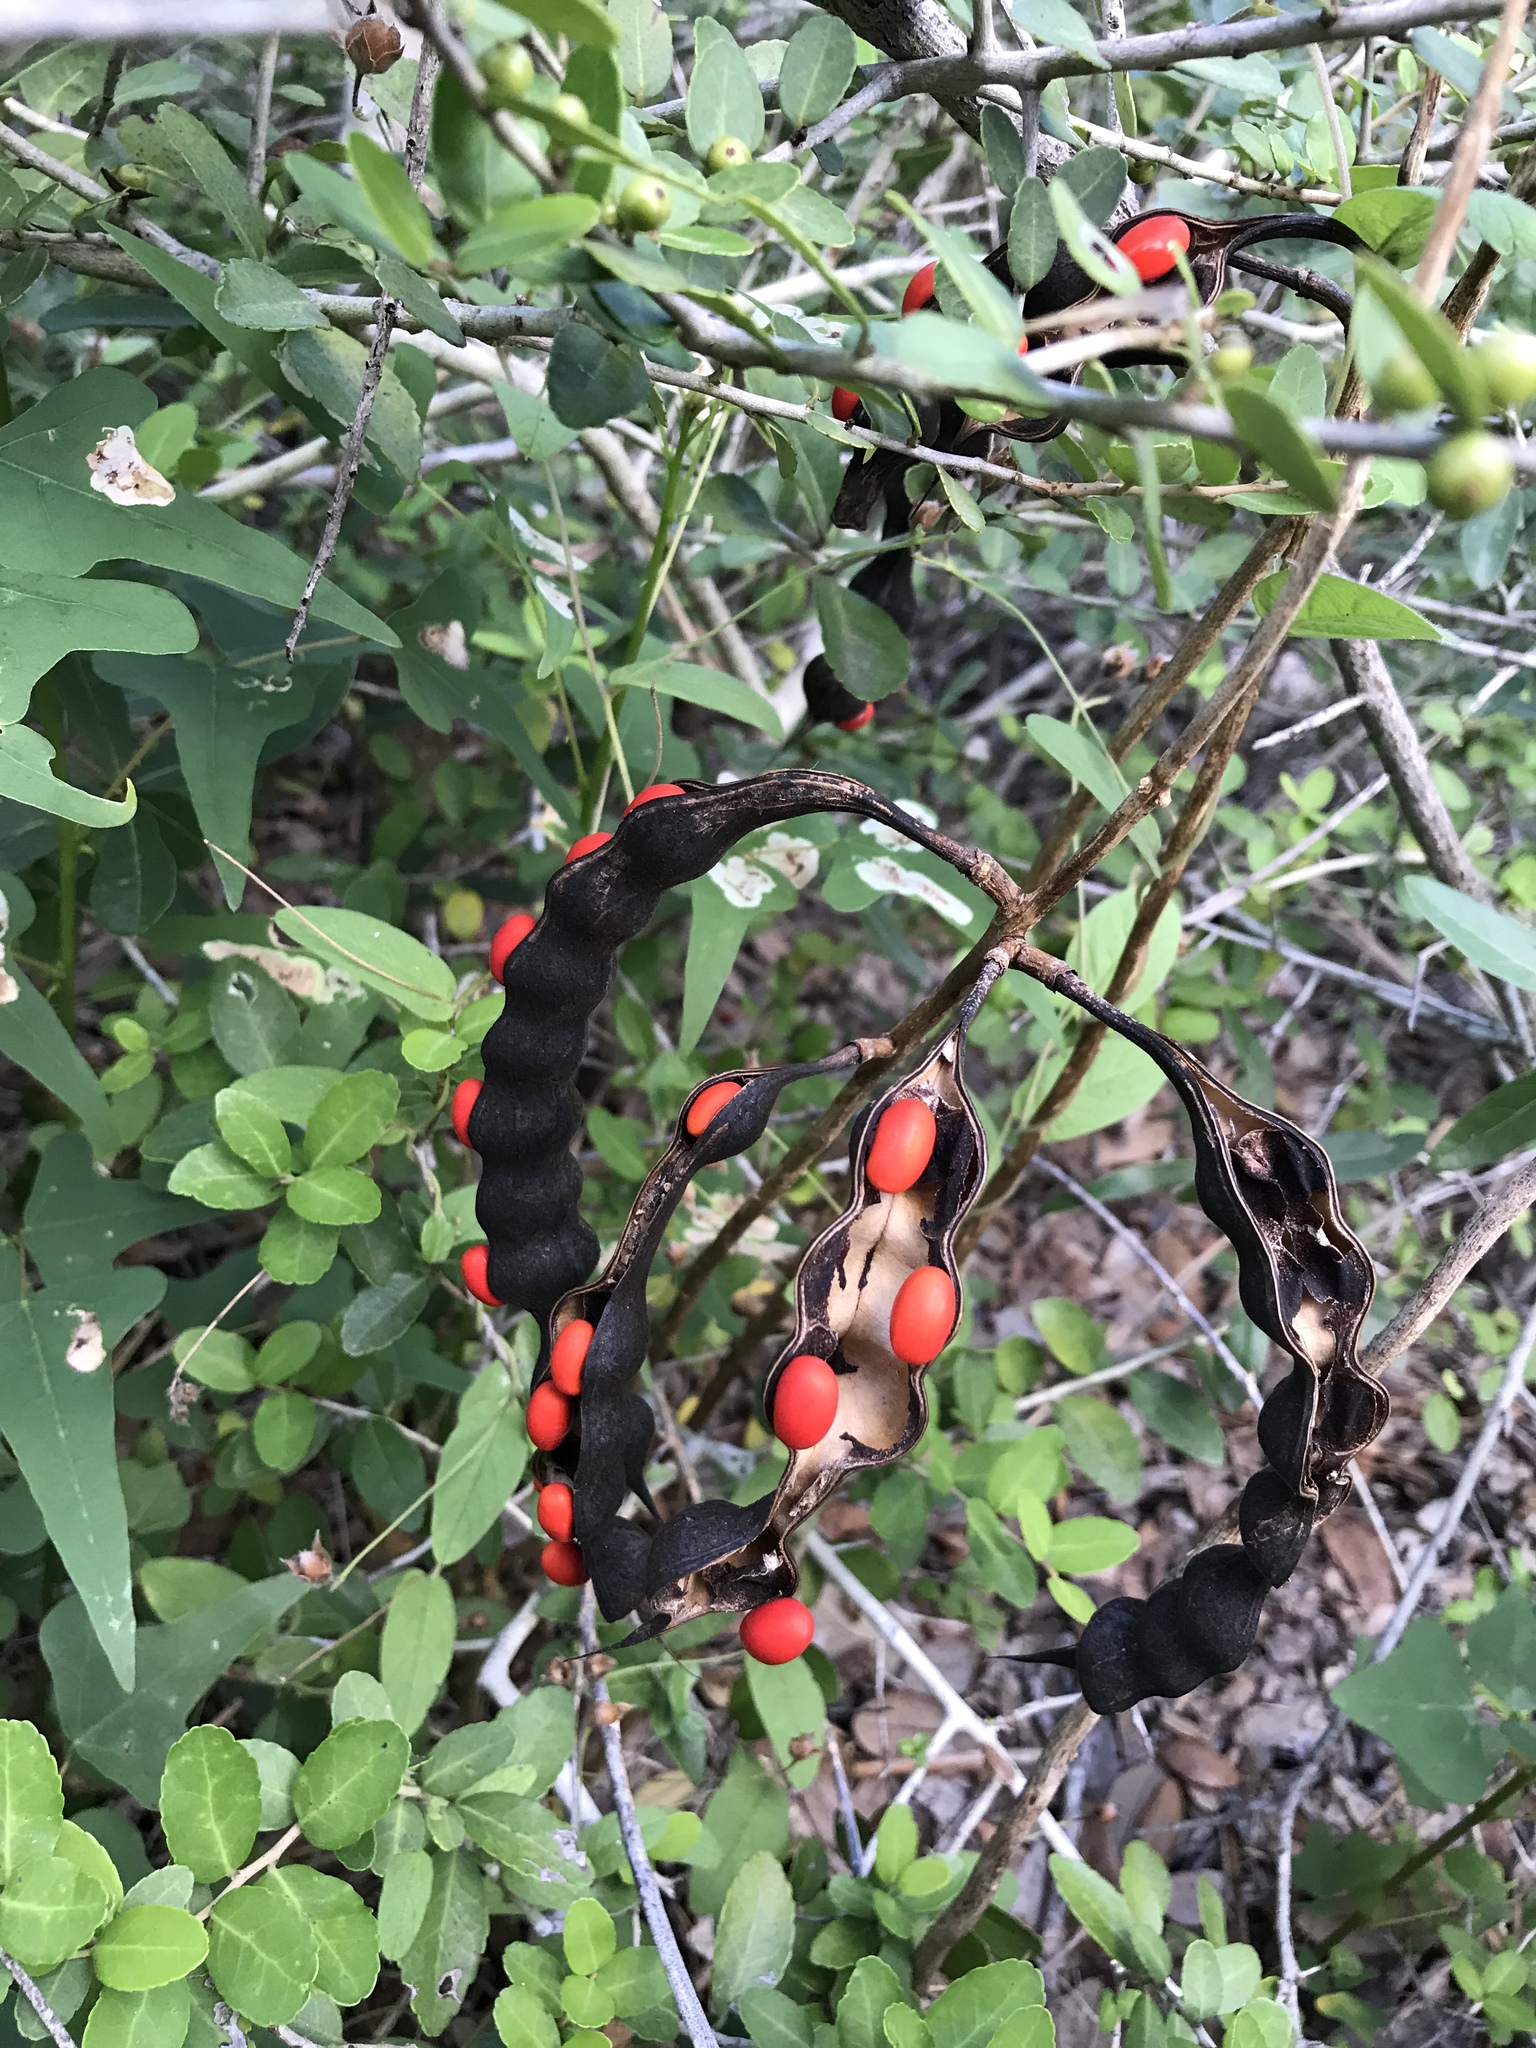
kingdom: Plantae
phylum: Tracheophyta
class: Magnoliopsida
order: Fabales
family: Fabaceae
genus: Erythrina
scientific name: Erythrina herbacea
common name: Coral-bean
